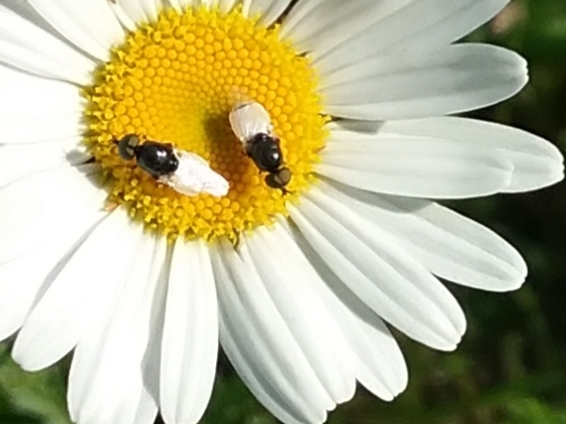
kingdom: Animalia
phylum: Arthropoda
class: Insecta
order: Diptera
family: Stratiomyidae
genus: Nemotelus
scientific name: Nemotelus kansensis
